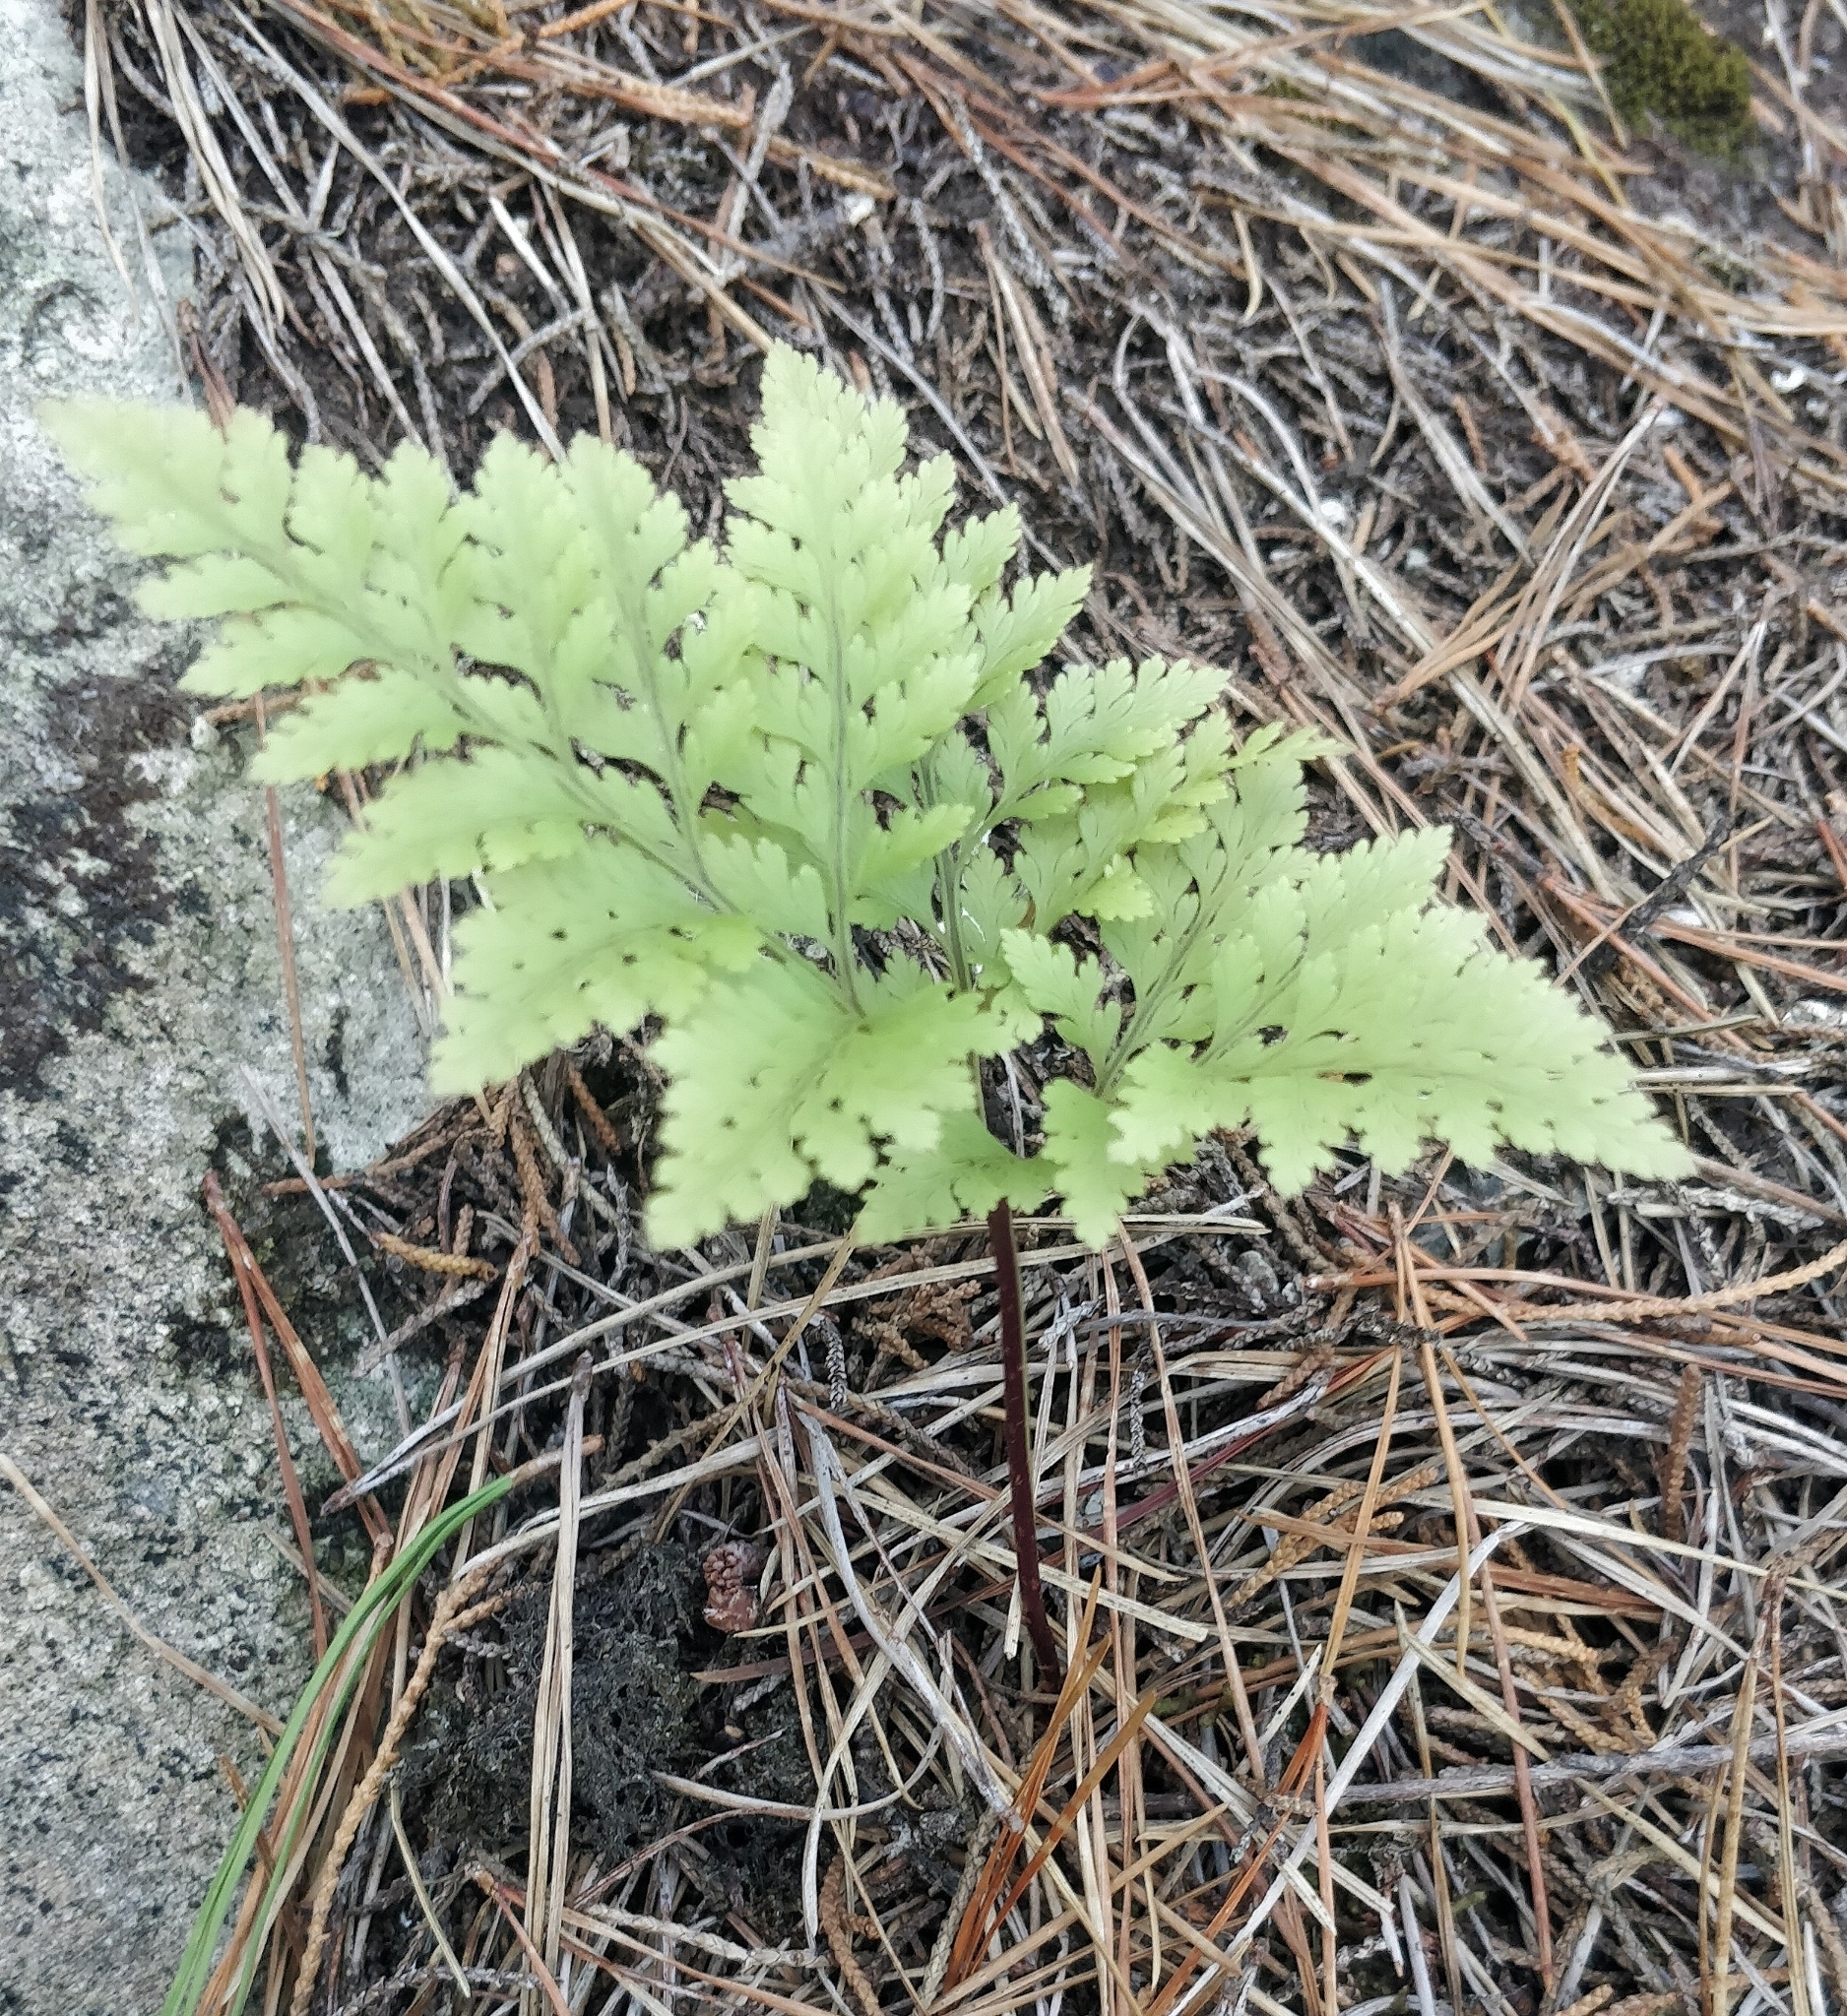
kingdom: Plantae
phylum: Tracheophyta
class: Polypodiopsida
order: Polypodiales
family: Davalliaceae
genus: Davallia
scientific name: Davallia canariensis
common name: Hare's-foot fern
